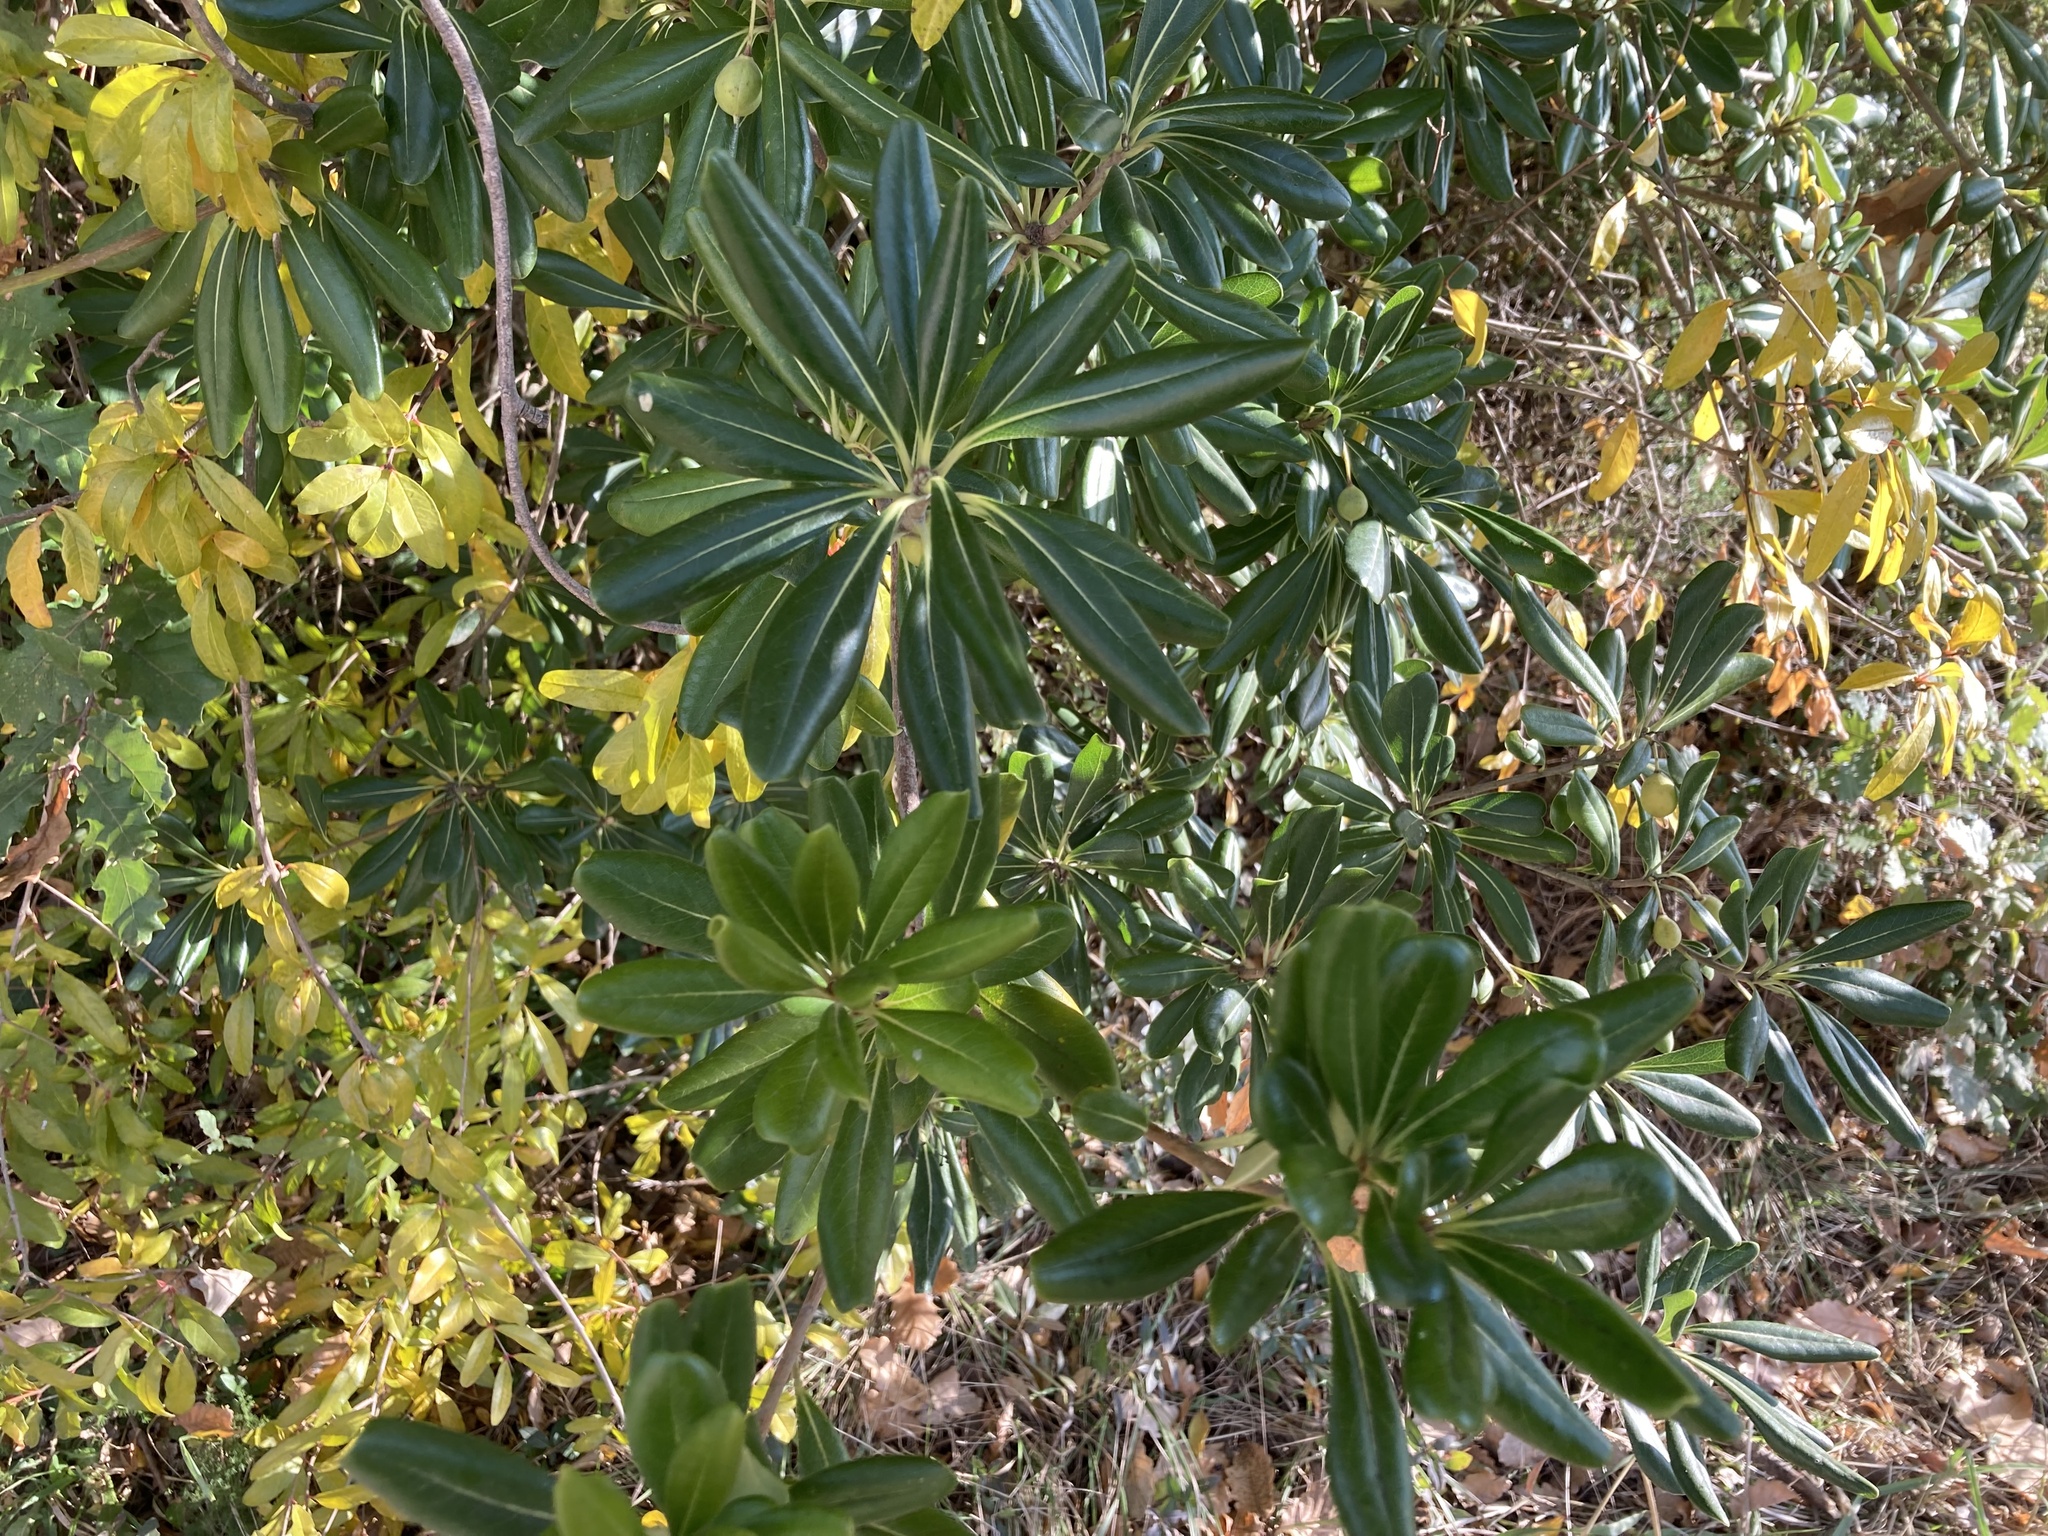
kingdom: Plantae
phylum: Tracheophyta
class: Magnoliopsida
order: Apiales
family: Pittosporaceae
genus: Pittosporum
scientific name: Pittosporum tobira
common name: Japanese cheesewood
